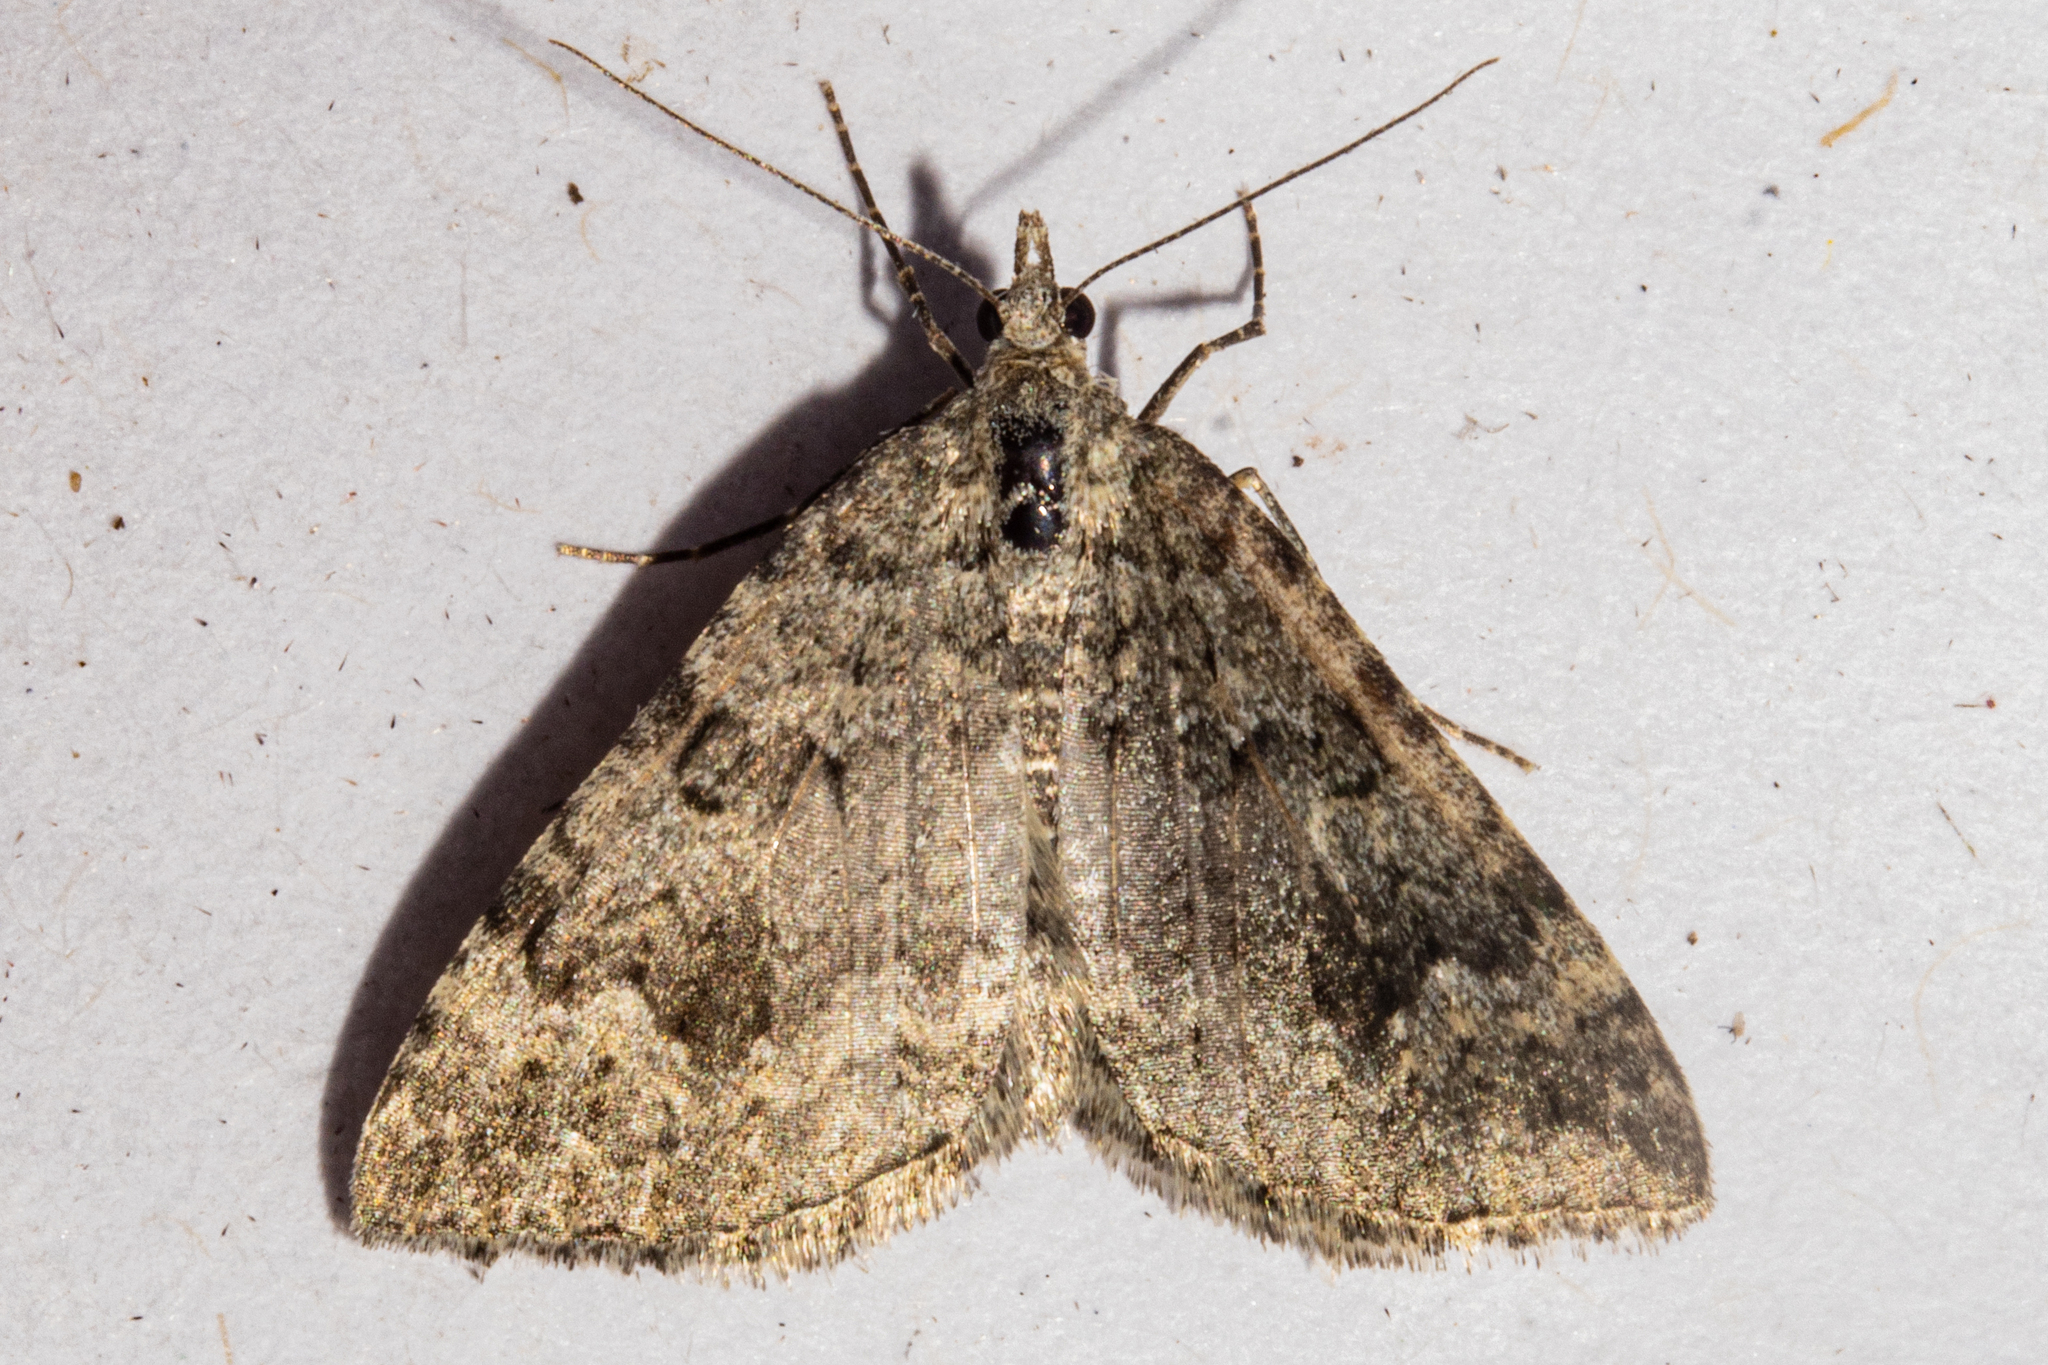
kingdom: Animalia
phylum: Arthropoda
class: Insecta
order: Lepidoptera
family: Geometridae
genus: Helastia
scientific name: Helastia corcularia
